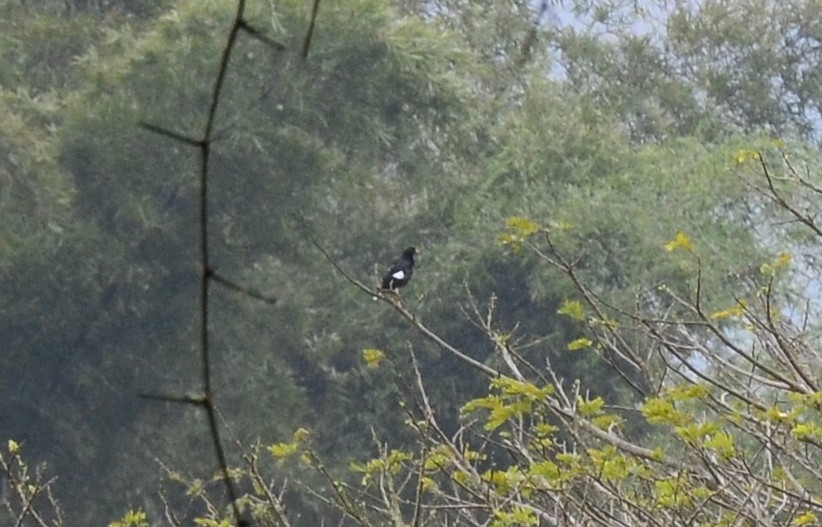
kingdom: Animalia
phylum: Chordata
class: Aves
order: Passeriformes
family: Sturnidae
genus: Acridotheres
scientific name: Acridotheres fuscus
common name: Jungle myna
